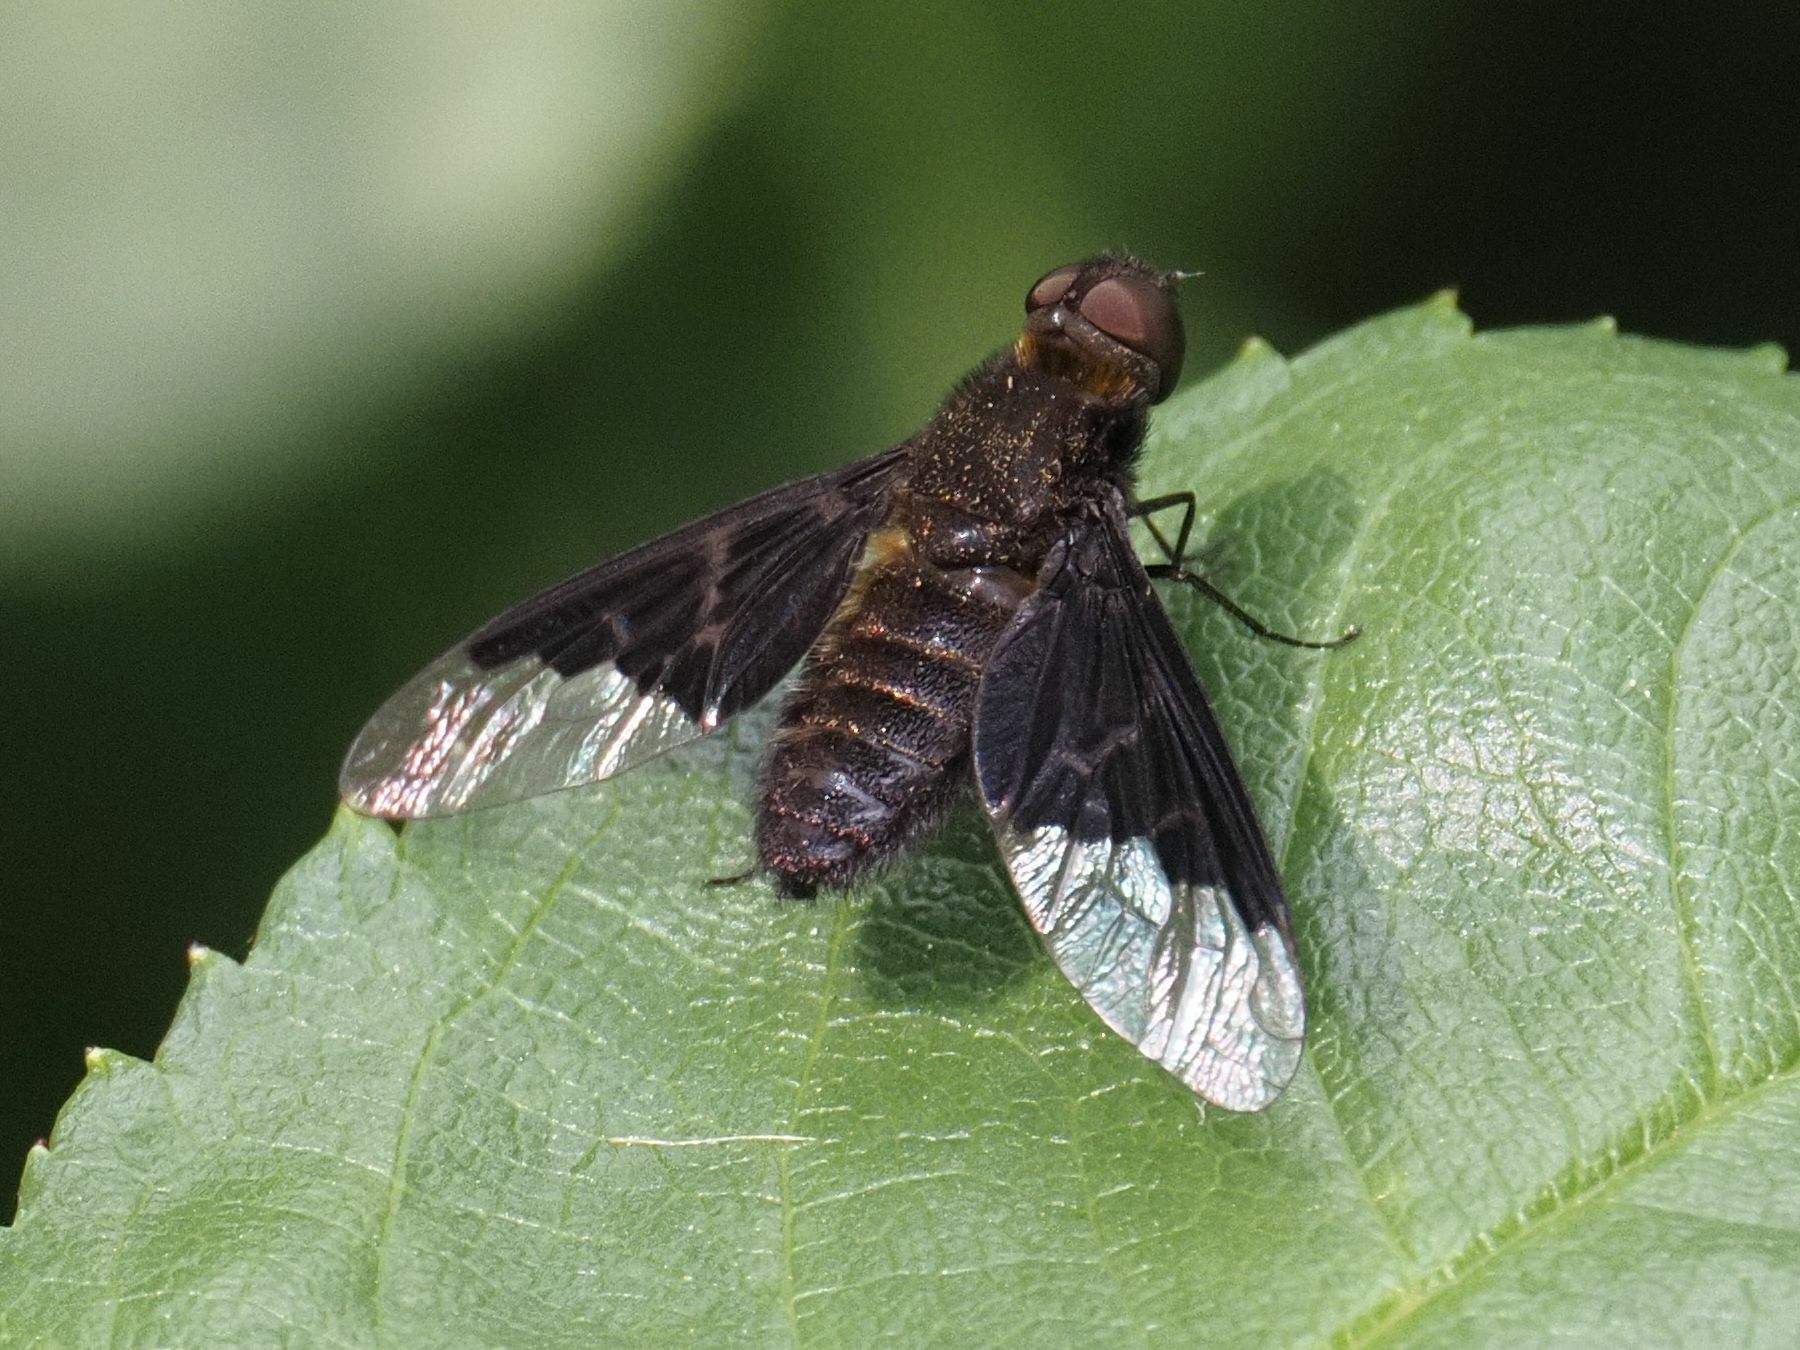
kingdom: Animalia
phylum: Arthropoda
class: Insecta
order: Diptera
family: Bombyliidae
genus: Hemipenthes
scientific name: Hemipenthes morio
